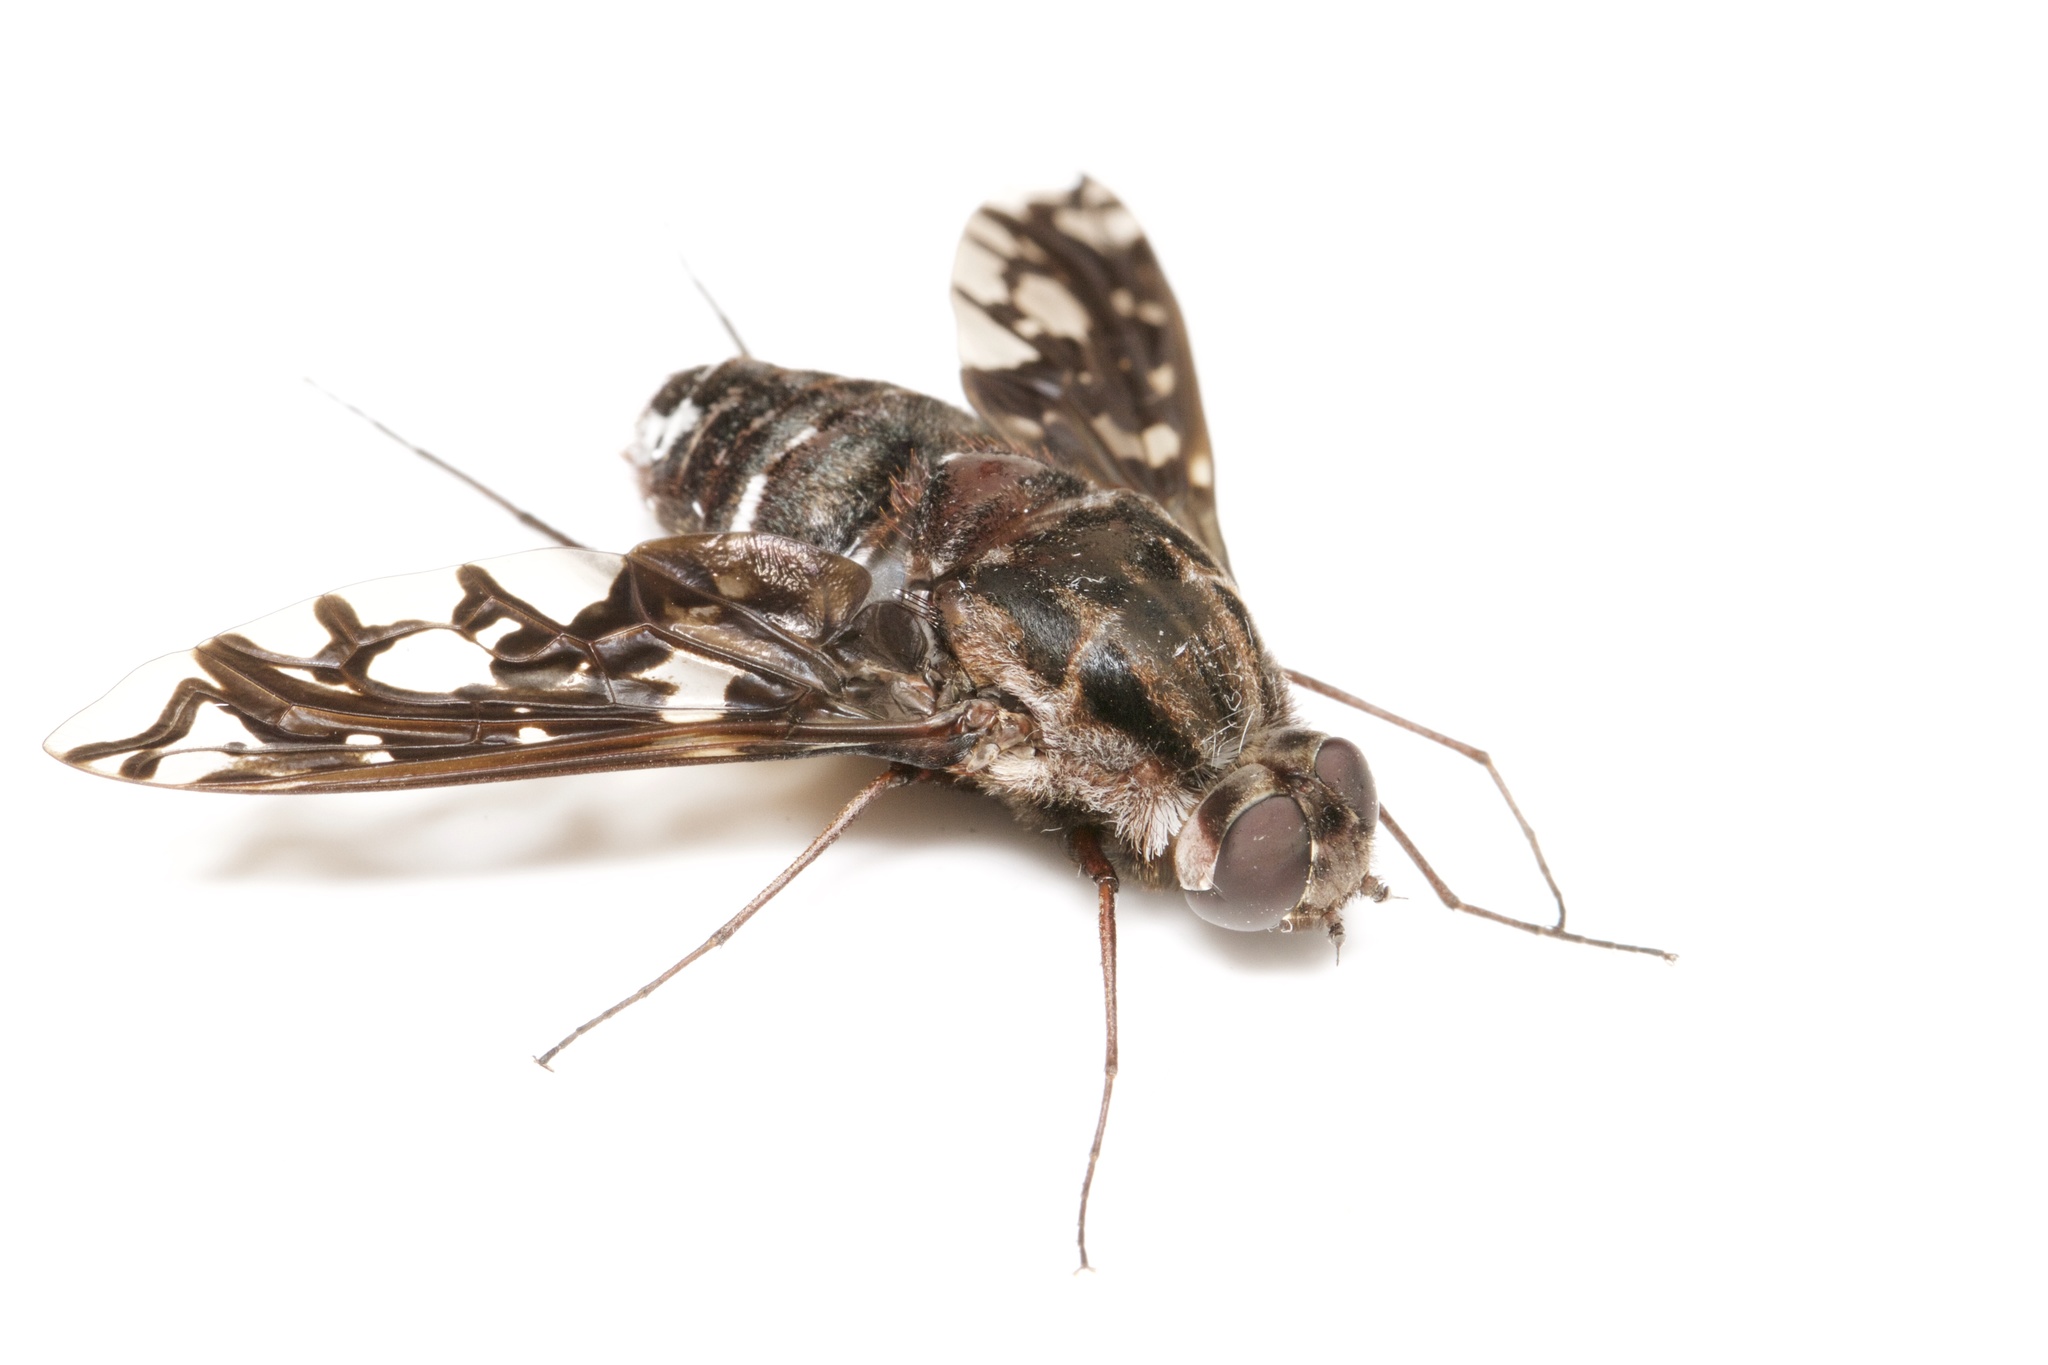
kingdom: Animalia
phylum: Arthropoda
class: Insecta
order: Diptera
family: Bombyliidae
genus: Xenox
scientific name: Xenox tigrinus
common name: Tiger bee fly
